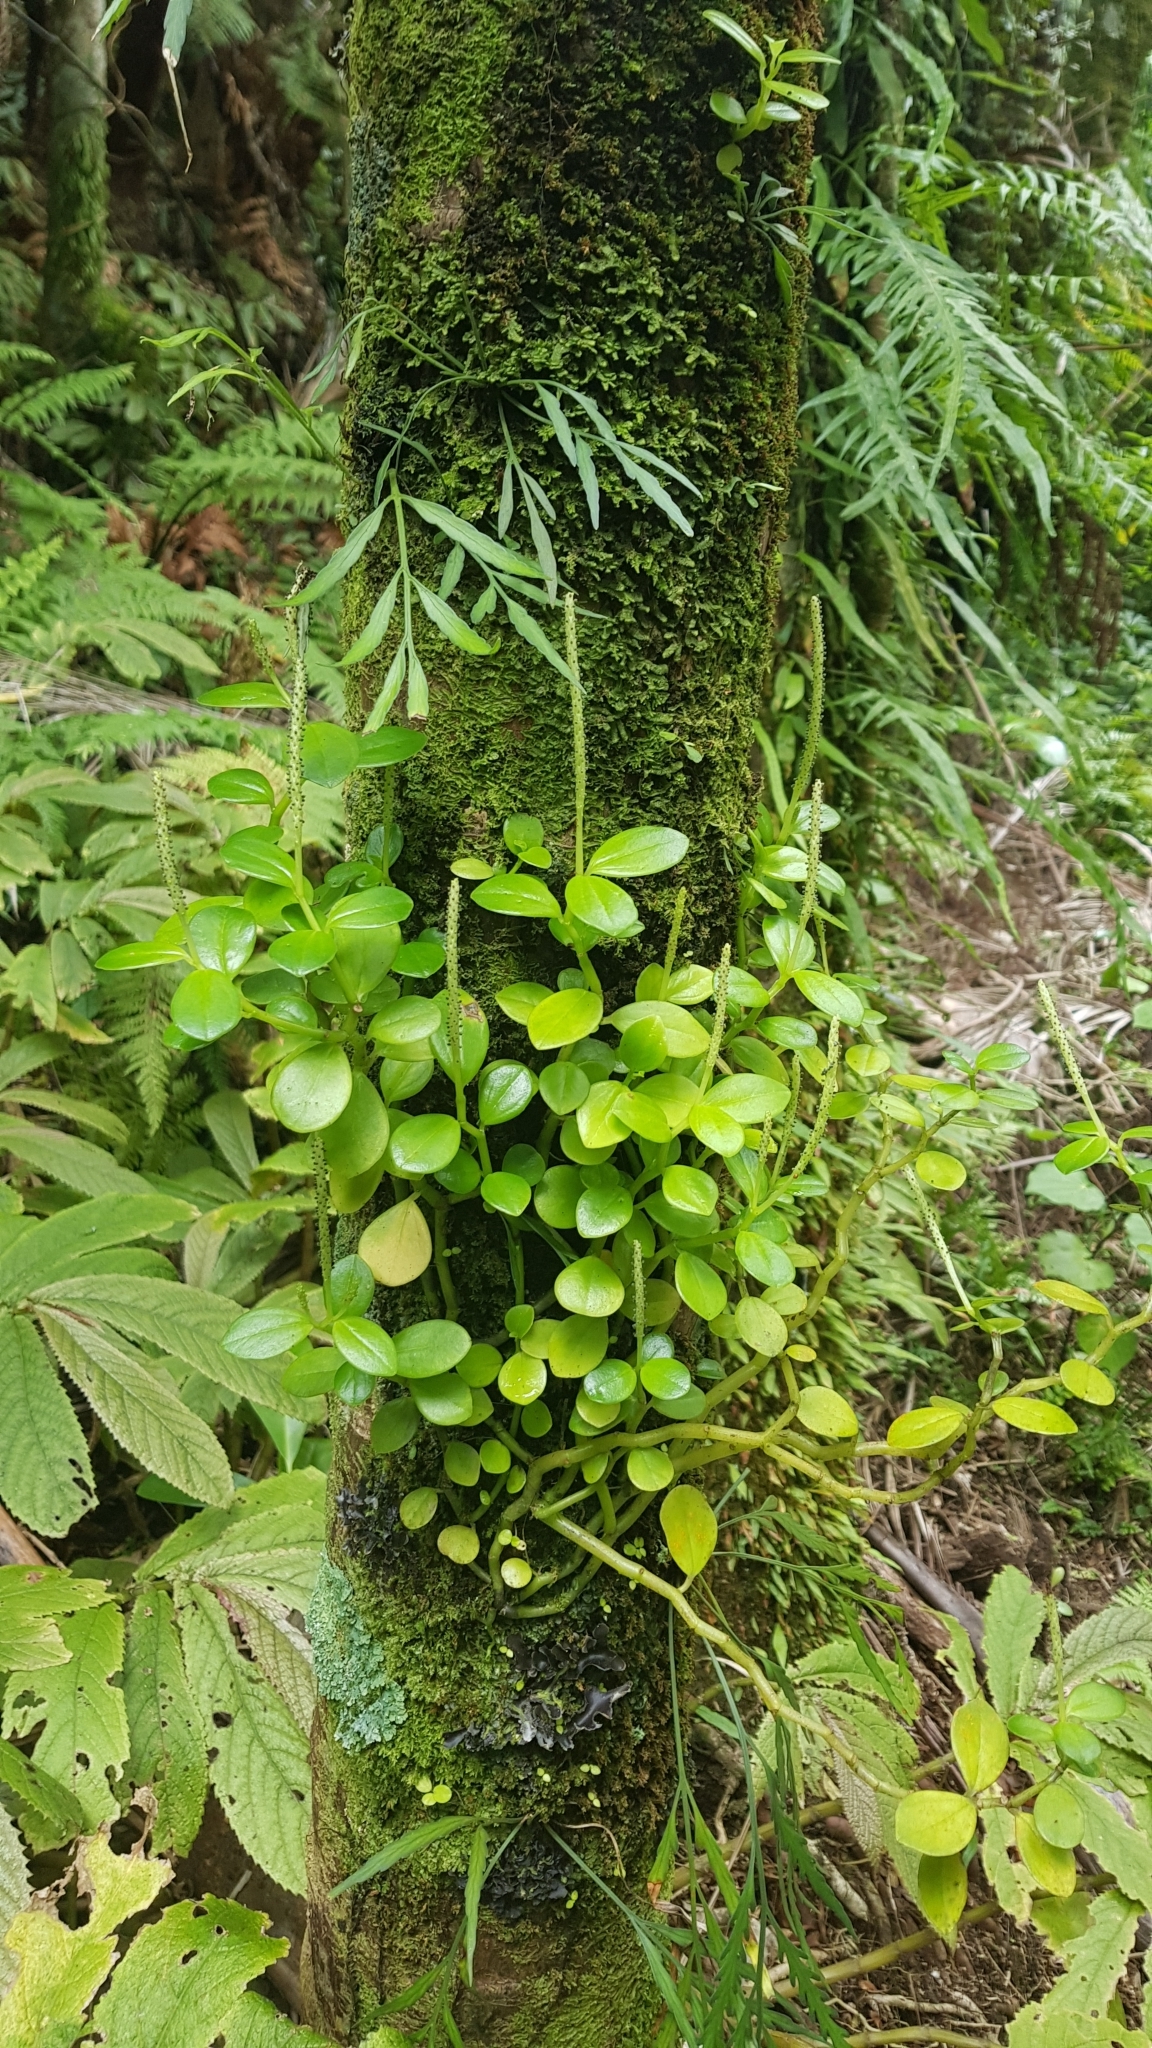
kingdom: Plantae
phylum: Tracheophyta
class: Magnoliopsida
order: Piperales
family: Piperaceae
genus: Peperomia
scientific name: Peperomia urvilleana
